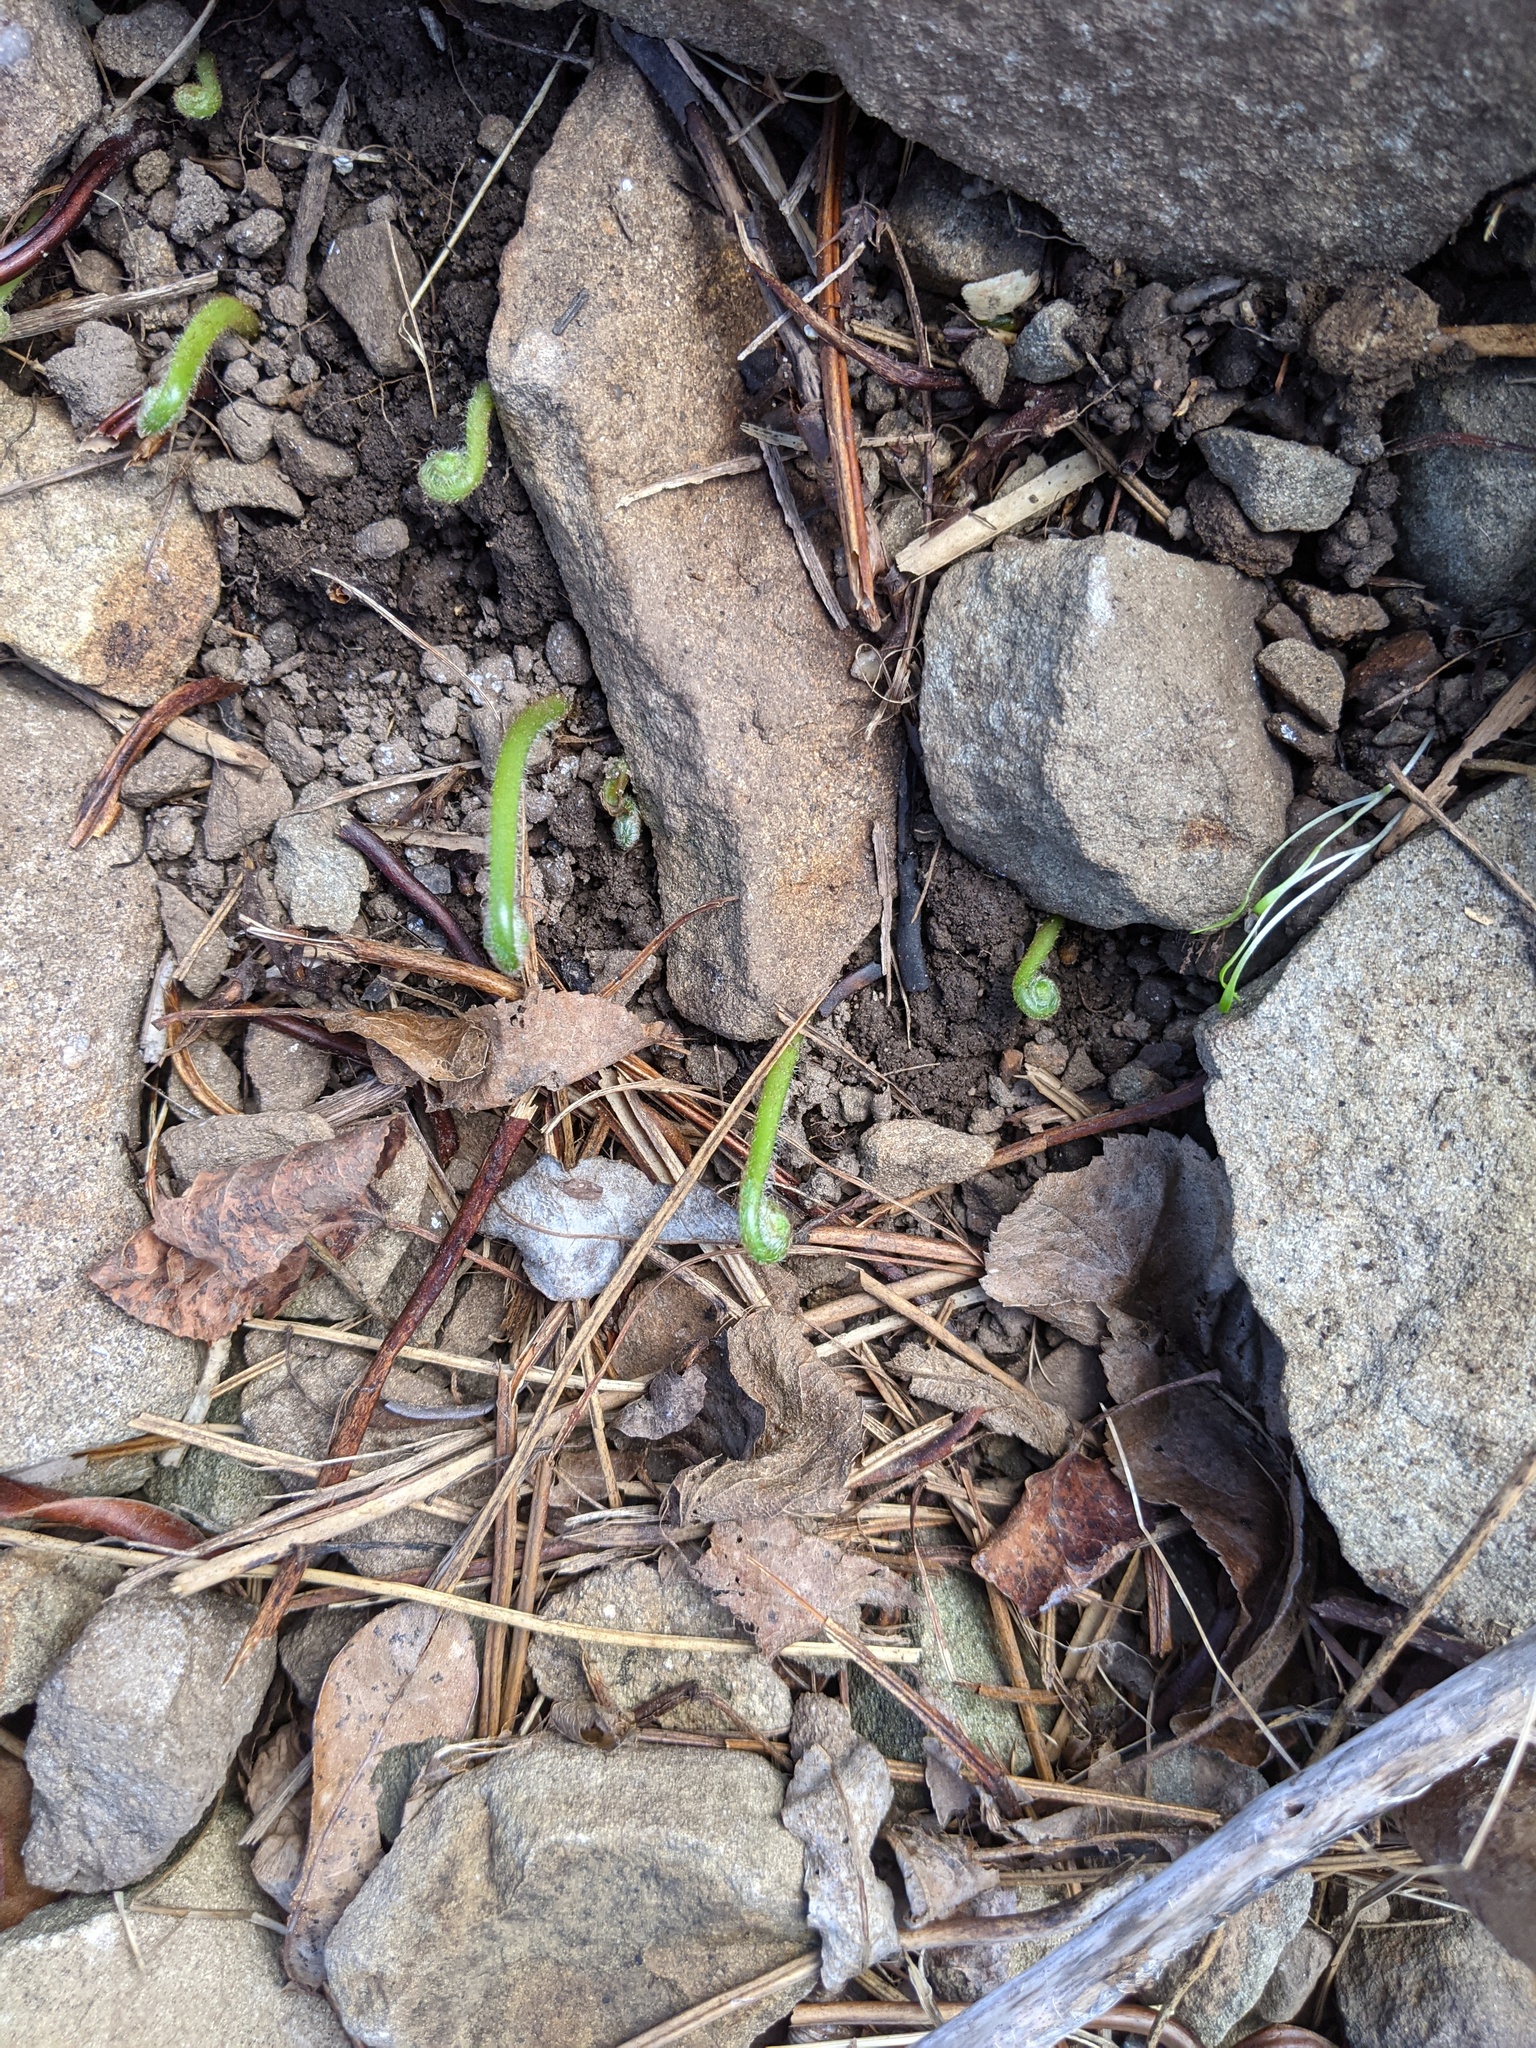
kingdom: Plantae
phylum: Tracheophyta
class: Polypodiopsida
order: Polypodiales
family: Dennstaedtiaceae
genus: Sitobolium
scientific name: Sitobolium punctilobum
